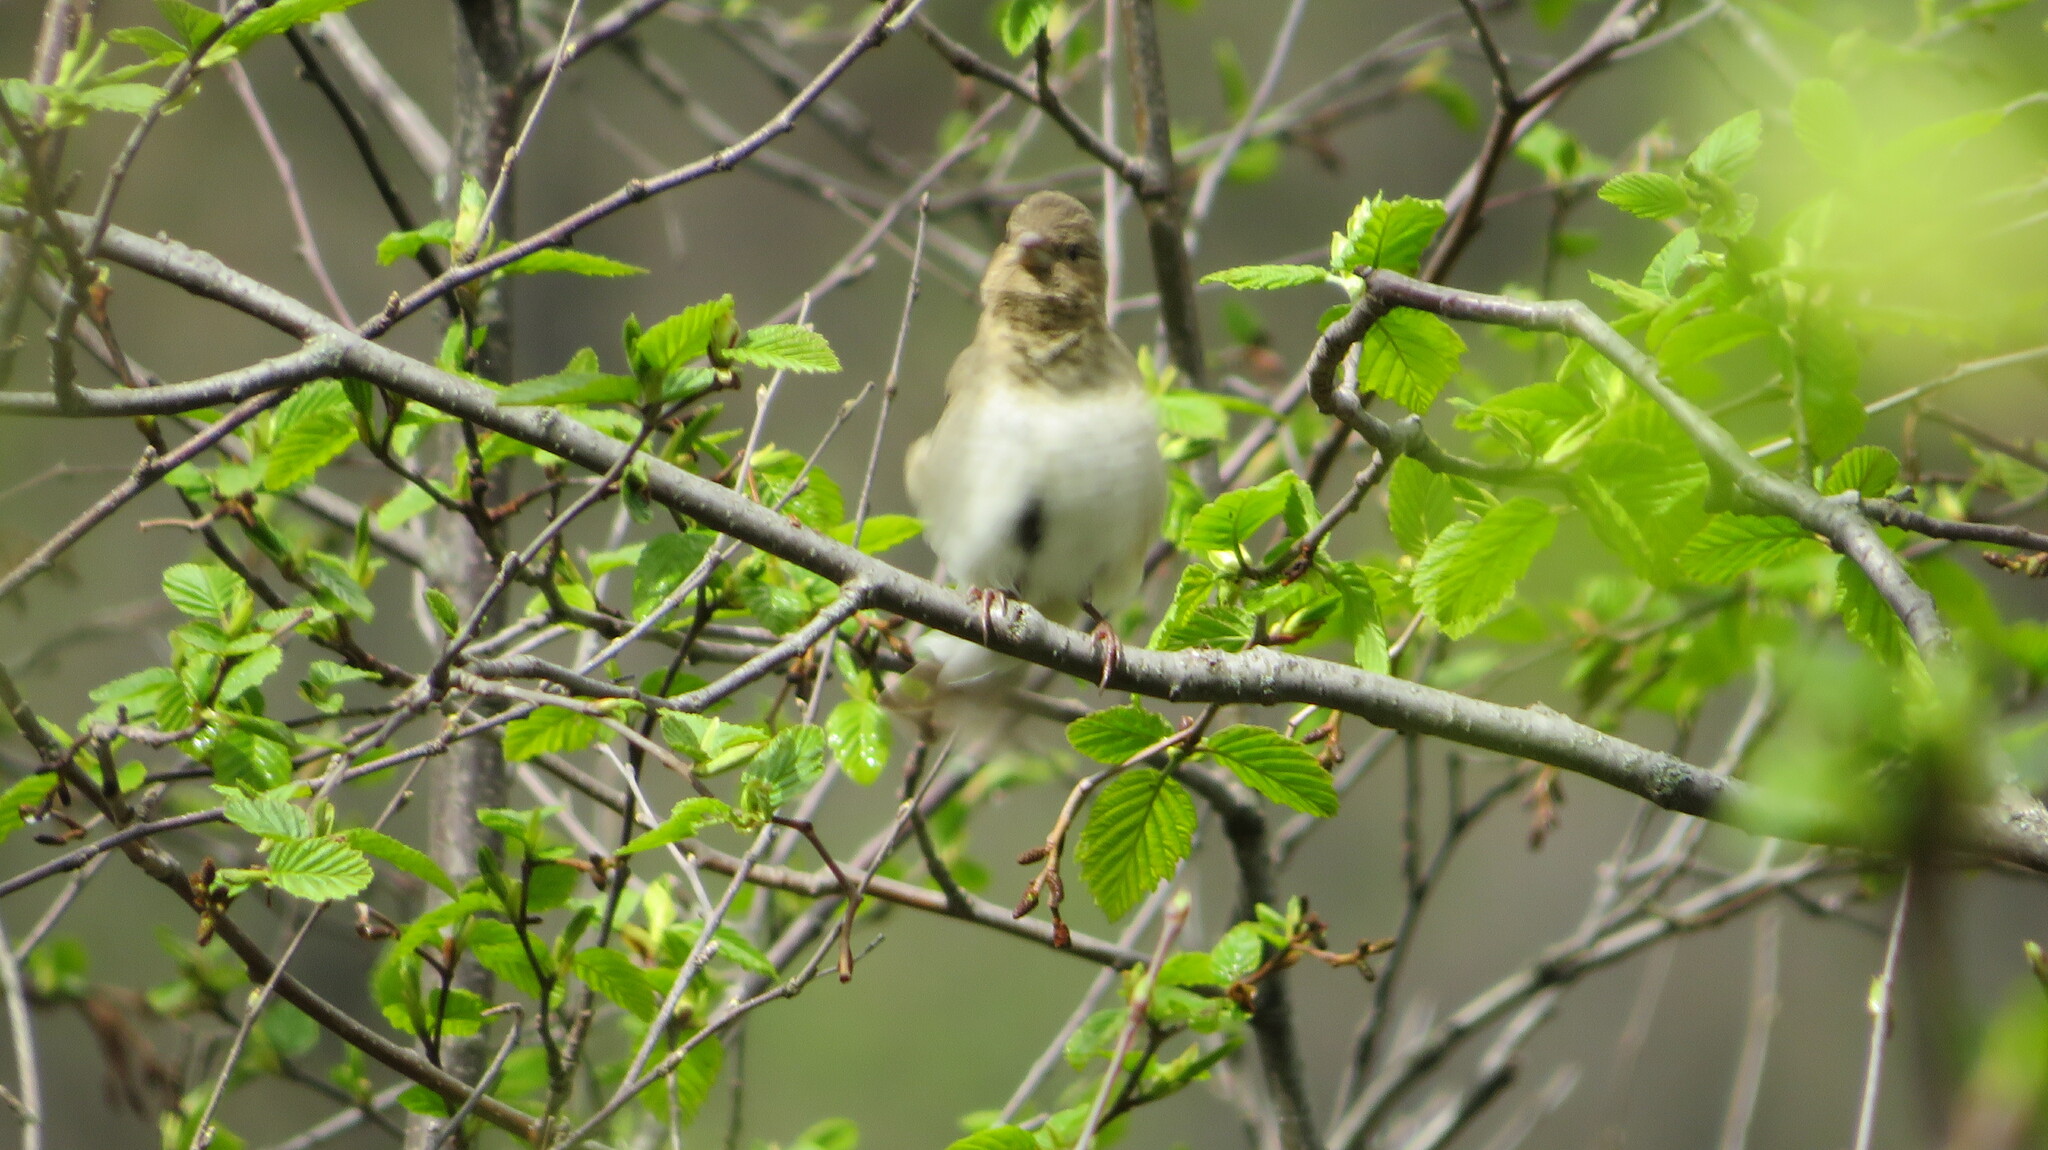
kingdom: Animalia
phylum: Chordata
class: Aves
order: Passeriformes
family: Fringillidae
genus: Carpodacus
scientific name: Carpodacus erythrinus
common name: Common rosefinch
